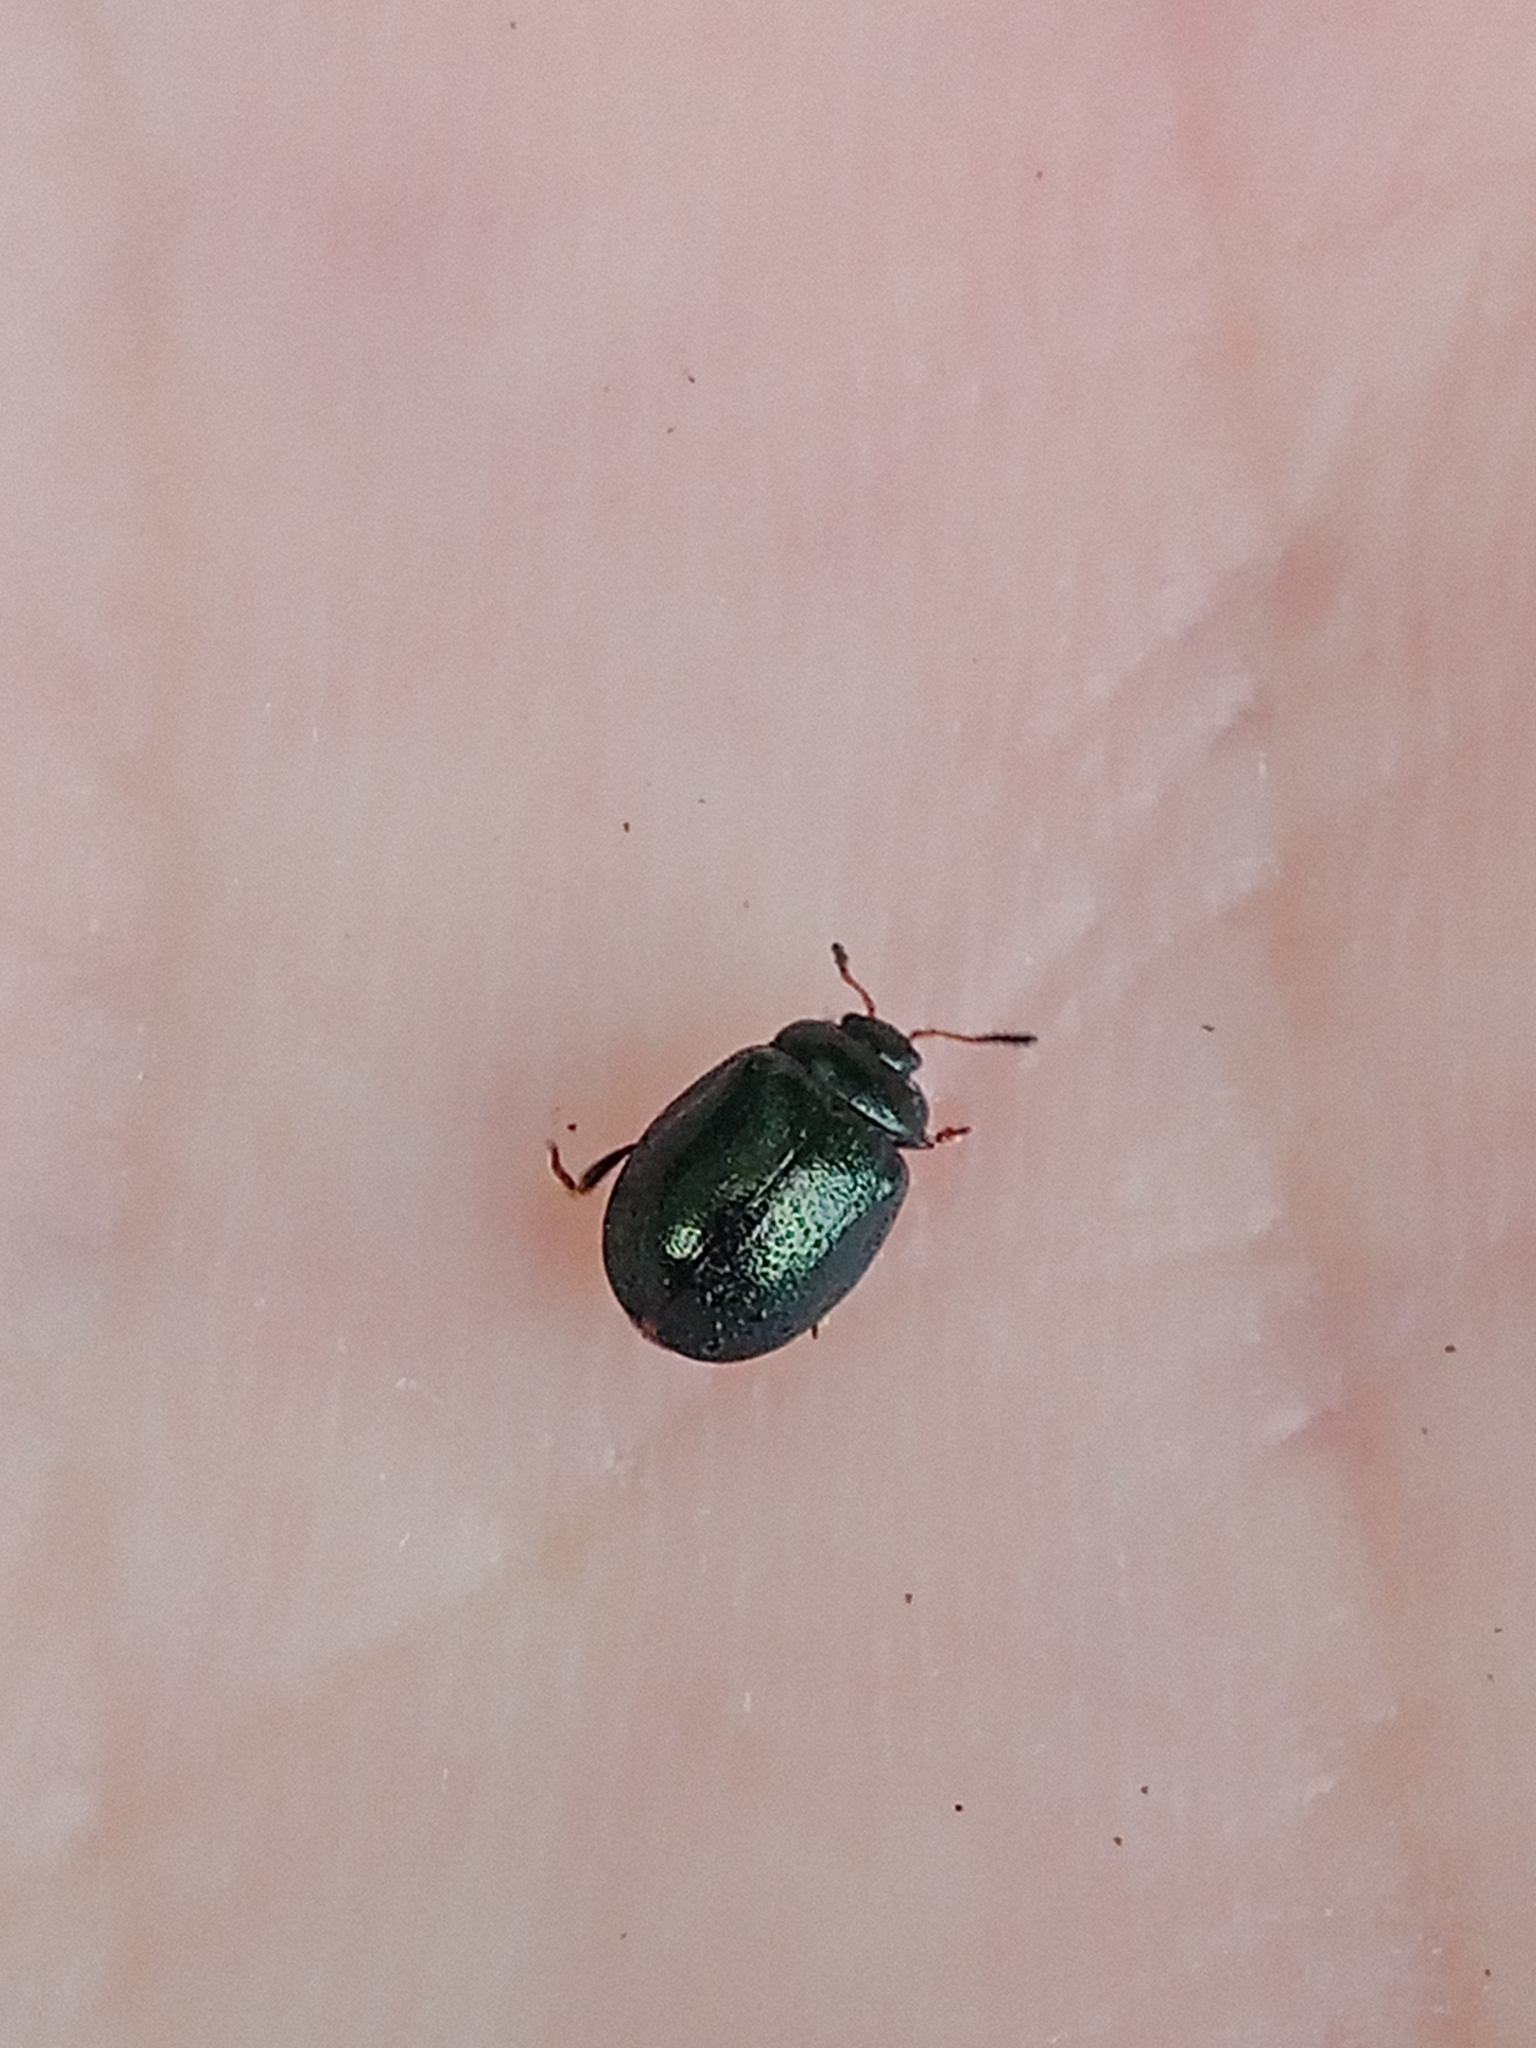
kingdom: Animalia
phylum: Arthropoda
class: Insecta
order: Coleoptera
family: Chrysomelidae
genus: Plagiodera
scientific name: Plagiodera versicolora
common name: Imported willow leaf beetle
